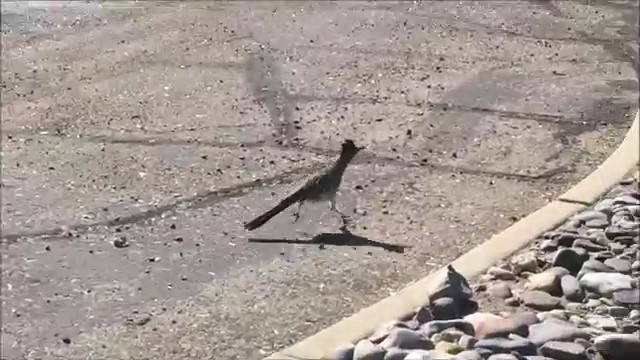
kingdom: Animalia
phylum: Chordata
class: Aves
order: Cuculiformes
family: Cuculidae
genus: Geococcyx
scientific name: Geococcyx californianus
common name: Greater roadrunner
